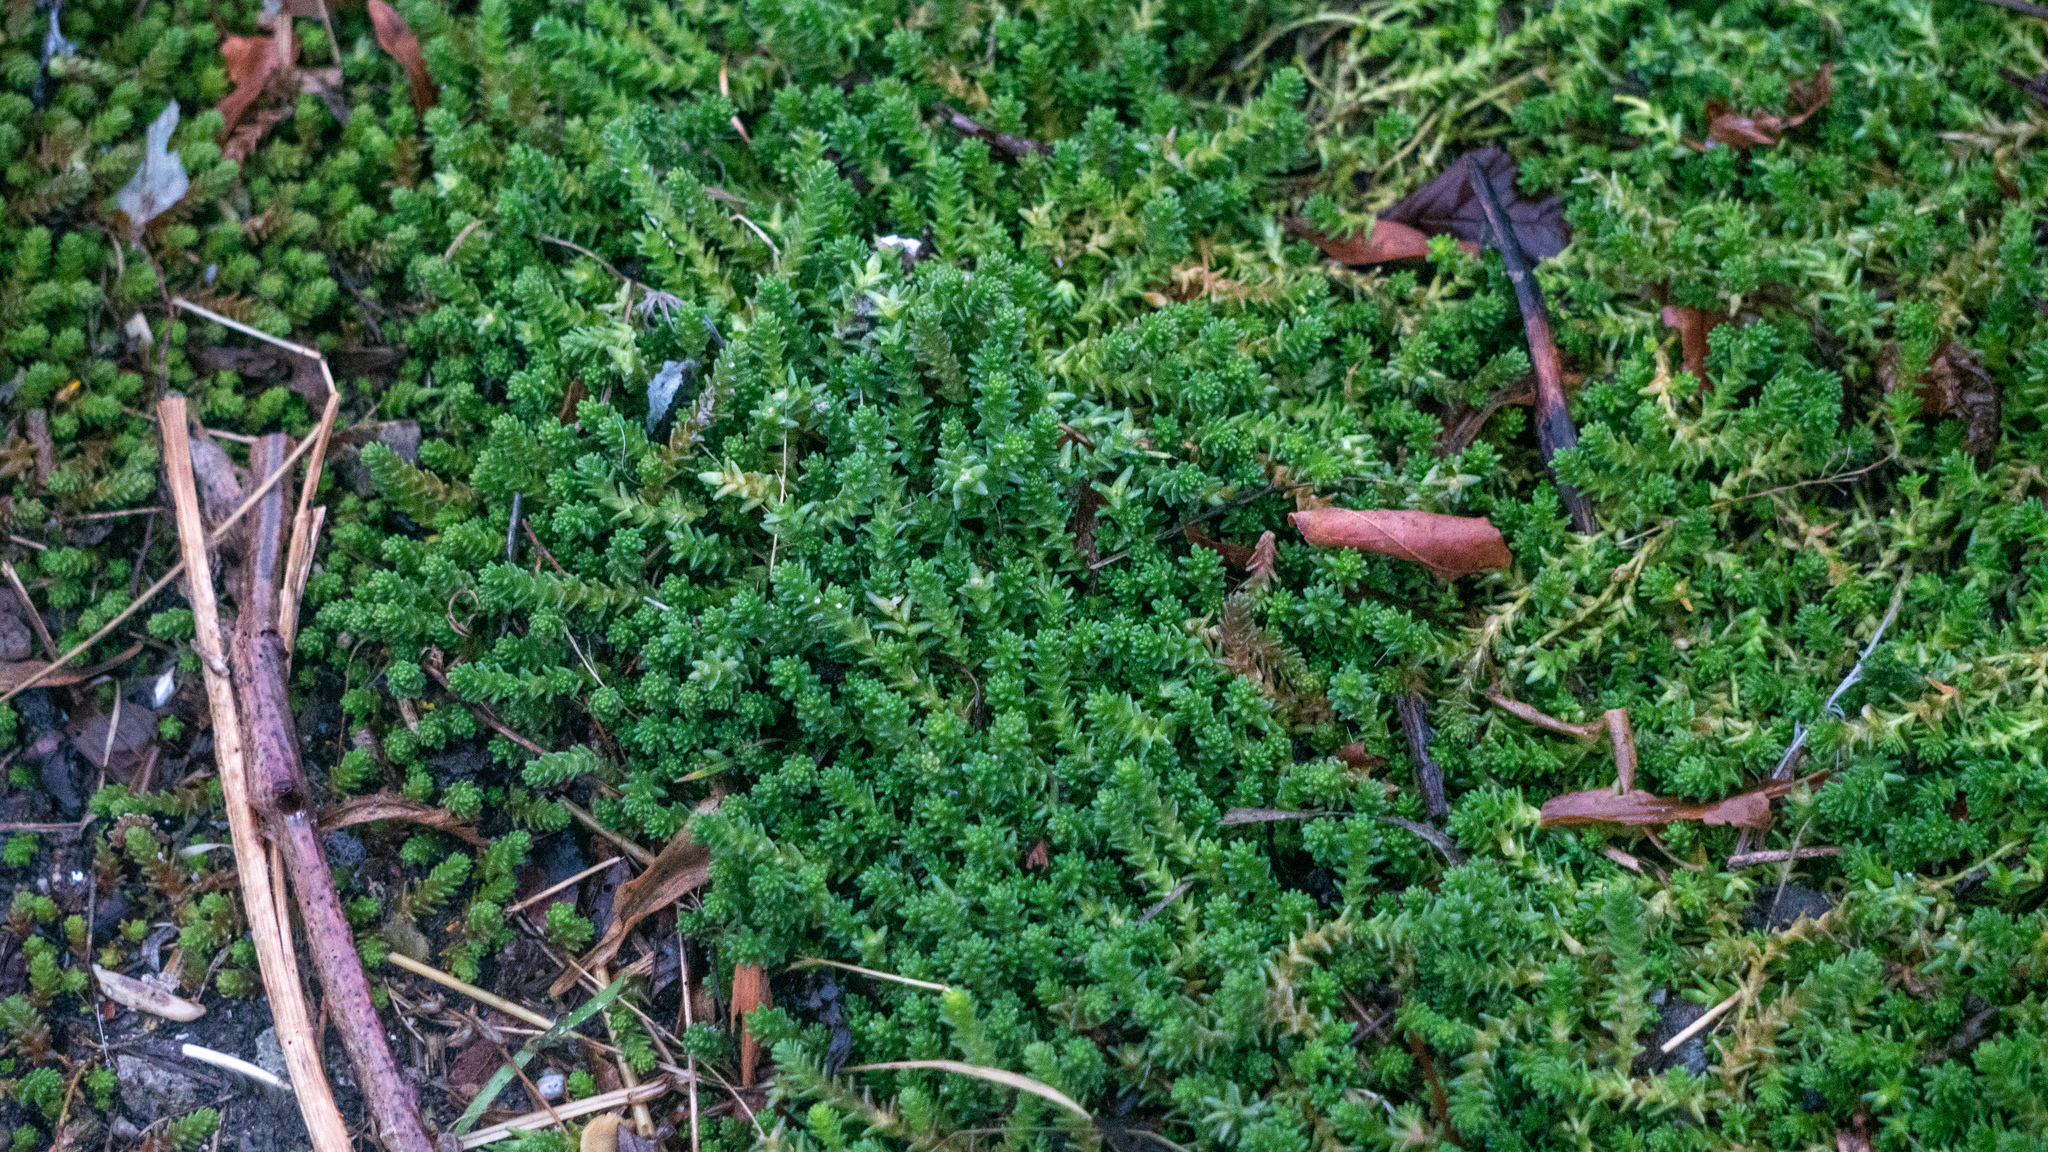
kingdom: Plantae
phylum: Tracheophyta
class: Magnoliopsida
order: Saxifragales
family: Crassulaceae
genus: Sedum
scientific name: Sedum acre
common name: Biting stonecrop
